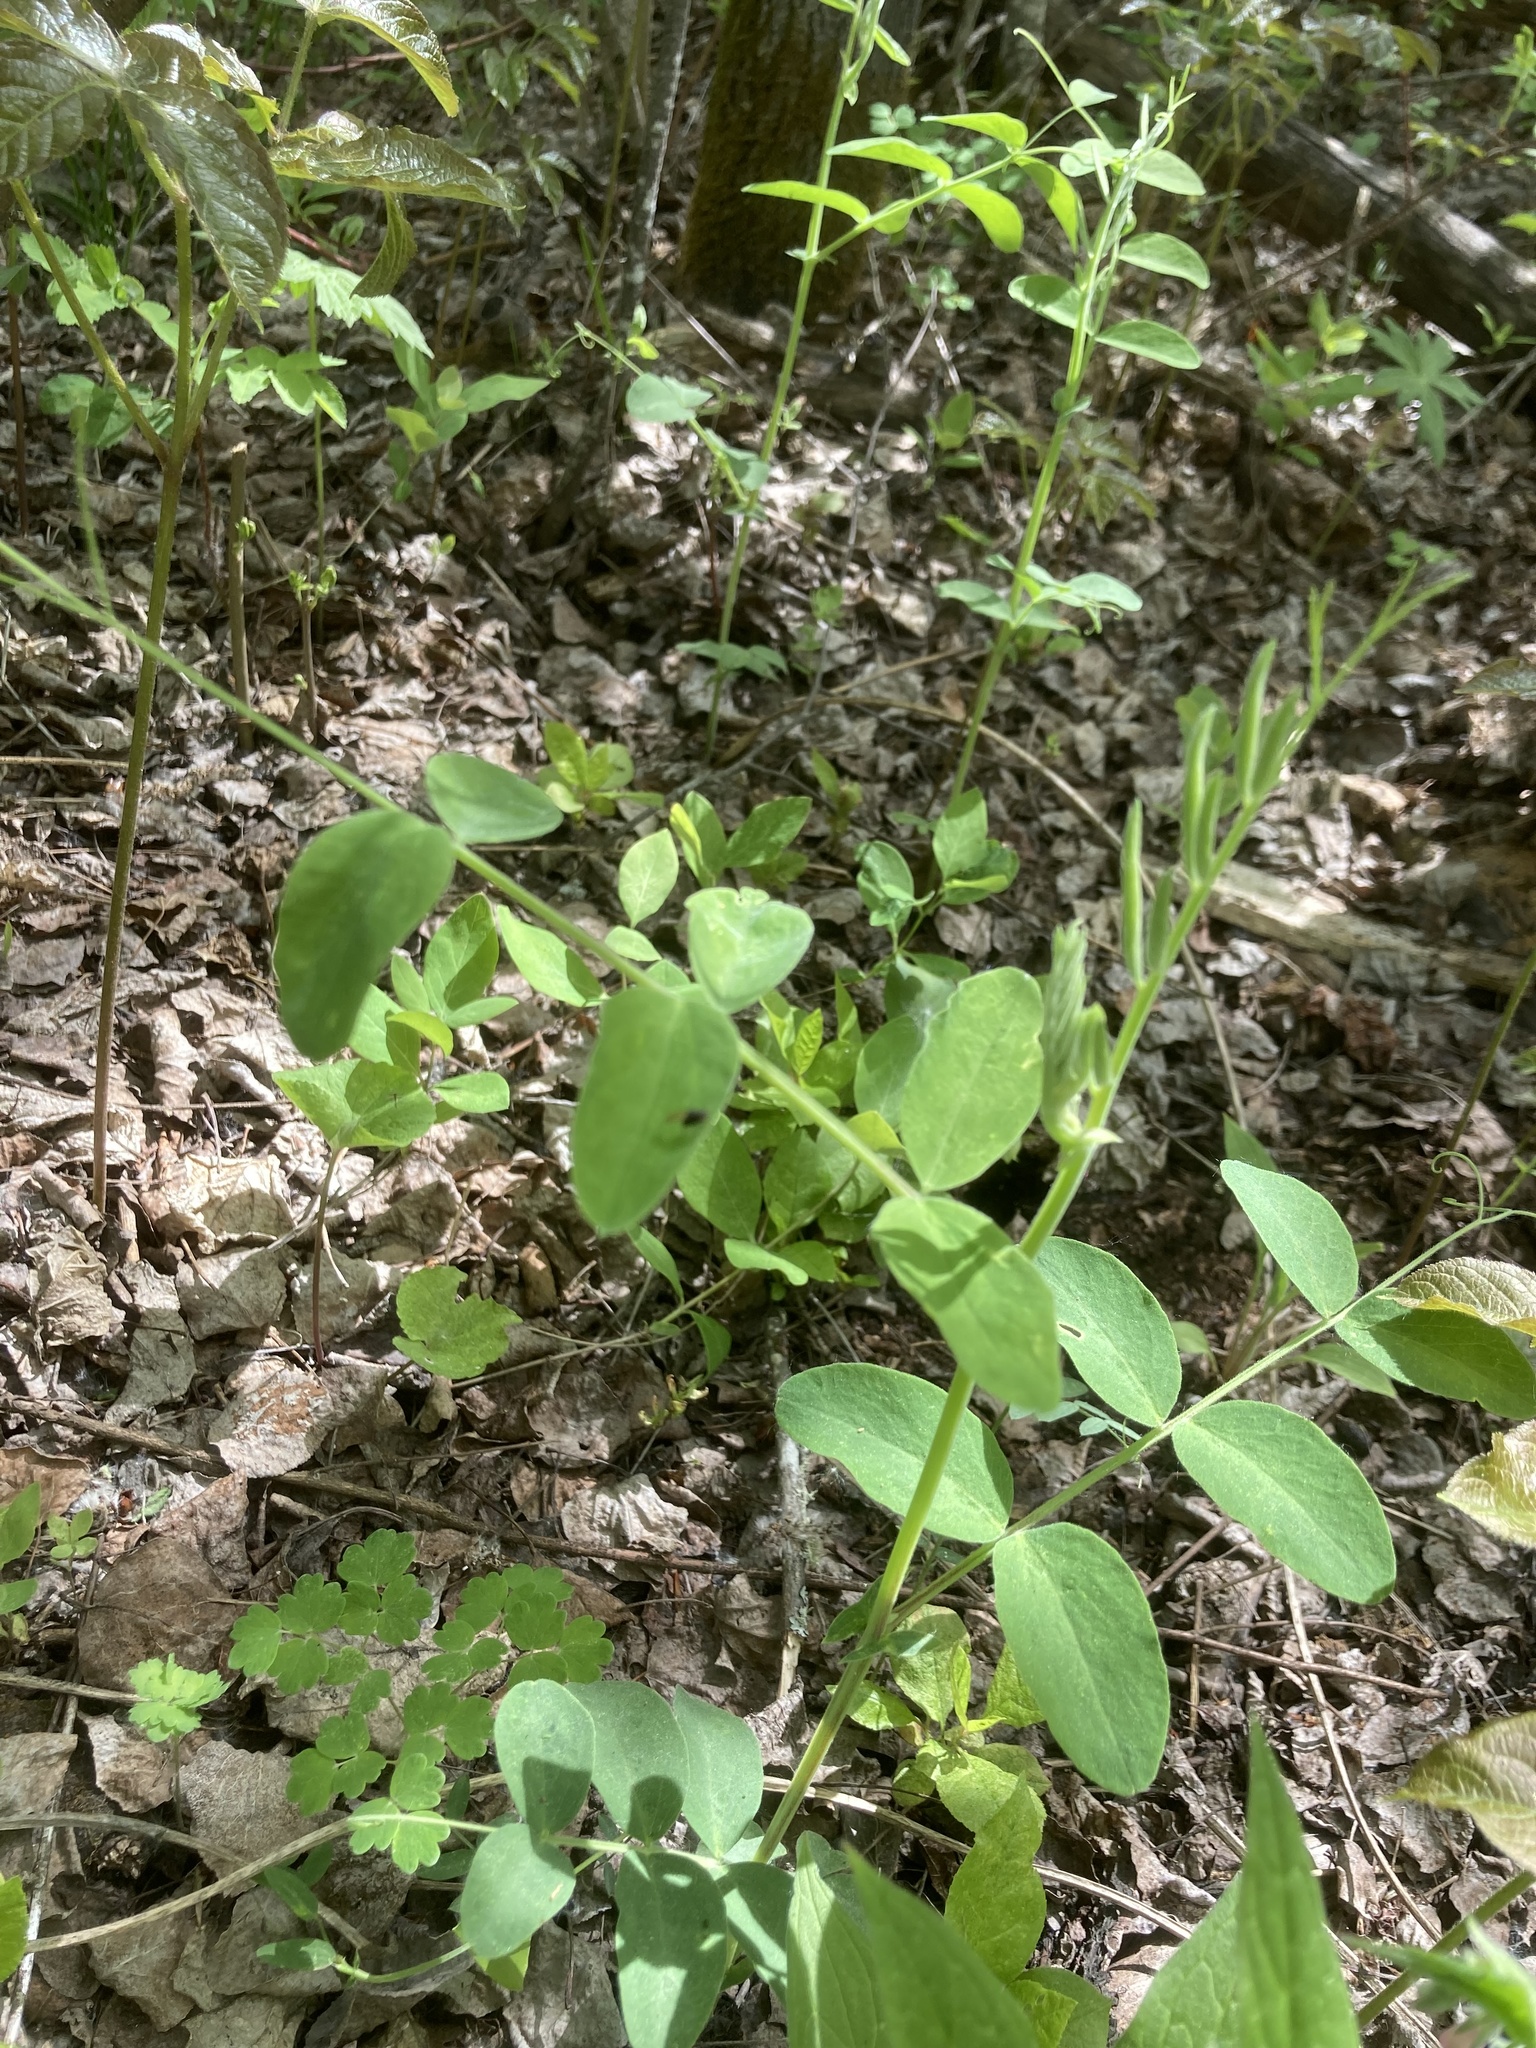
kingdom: Plantae
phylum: Tracheophyta
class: Magnoliopsida
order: Fabales
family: Fabaceae
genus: Lathyrus
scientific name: Lathyrus ochroleucus
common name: Pale vetchling
